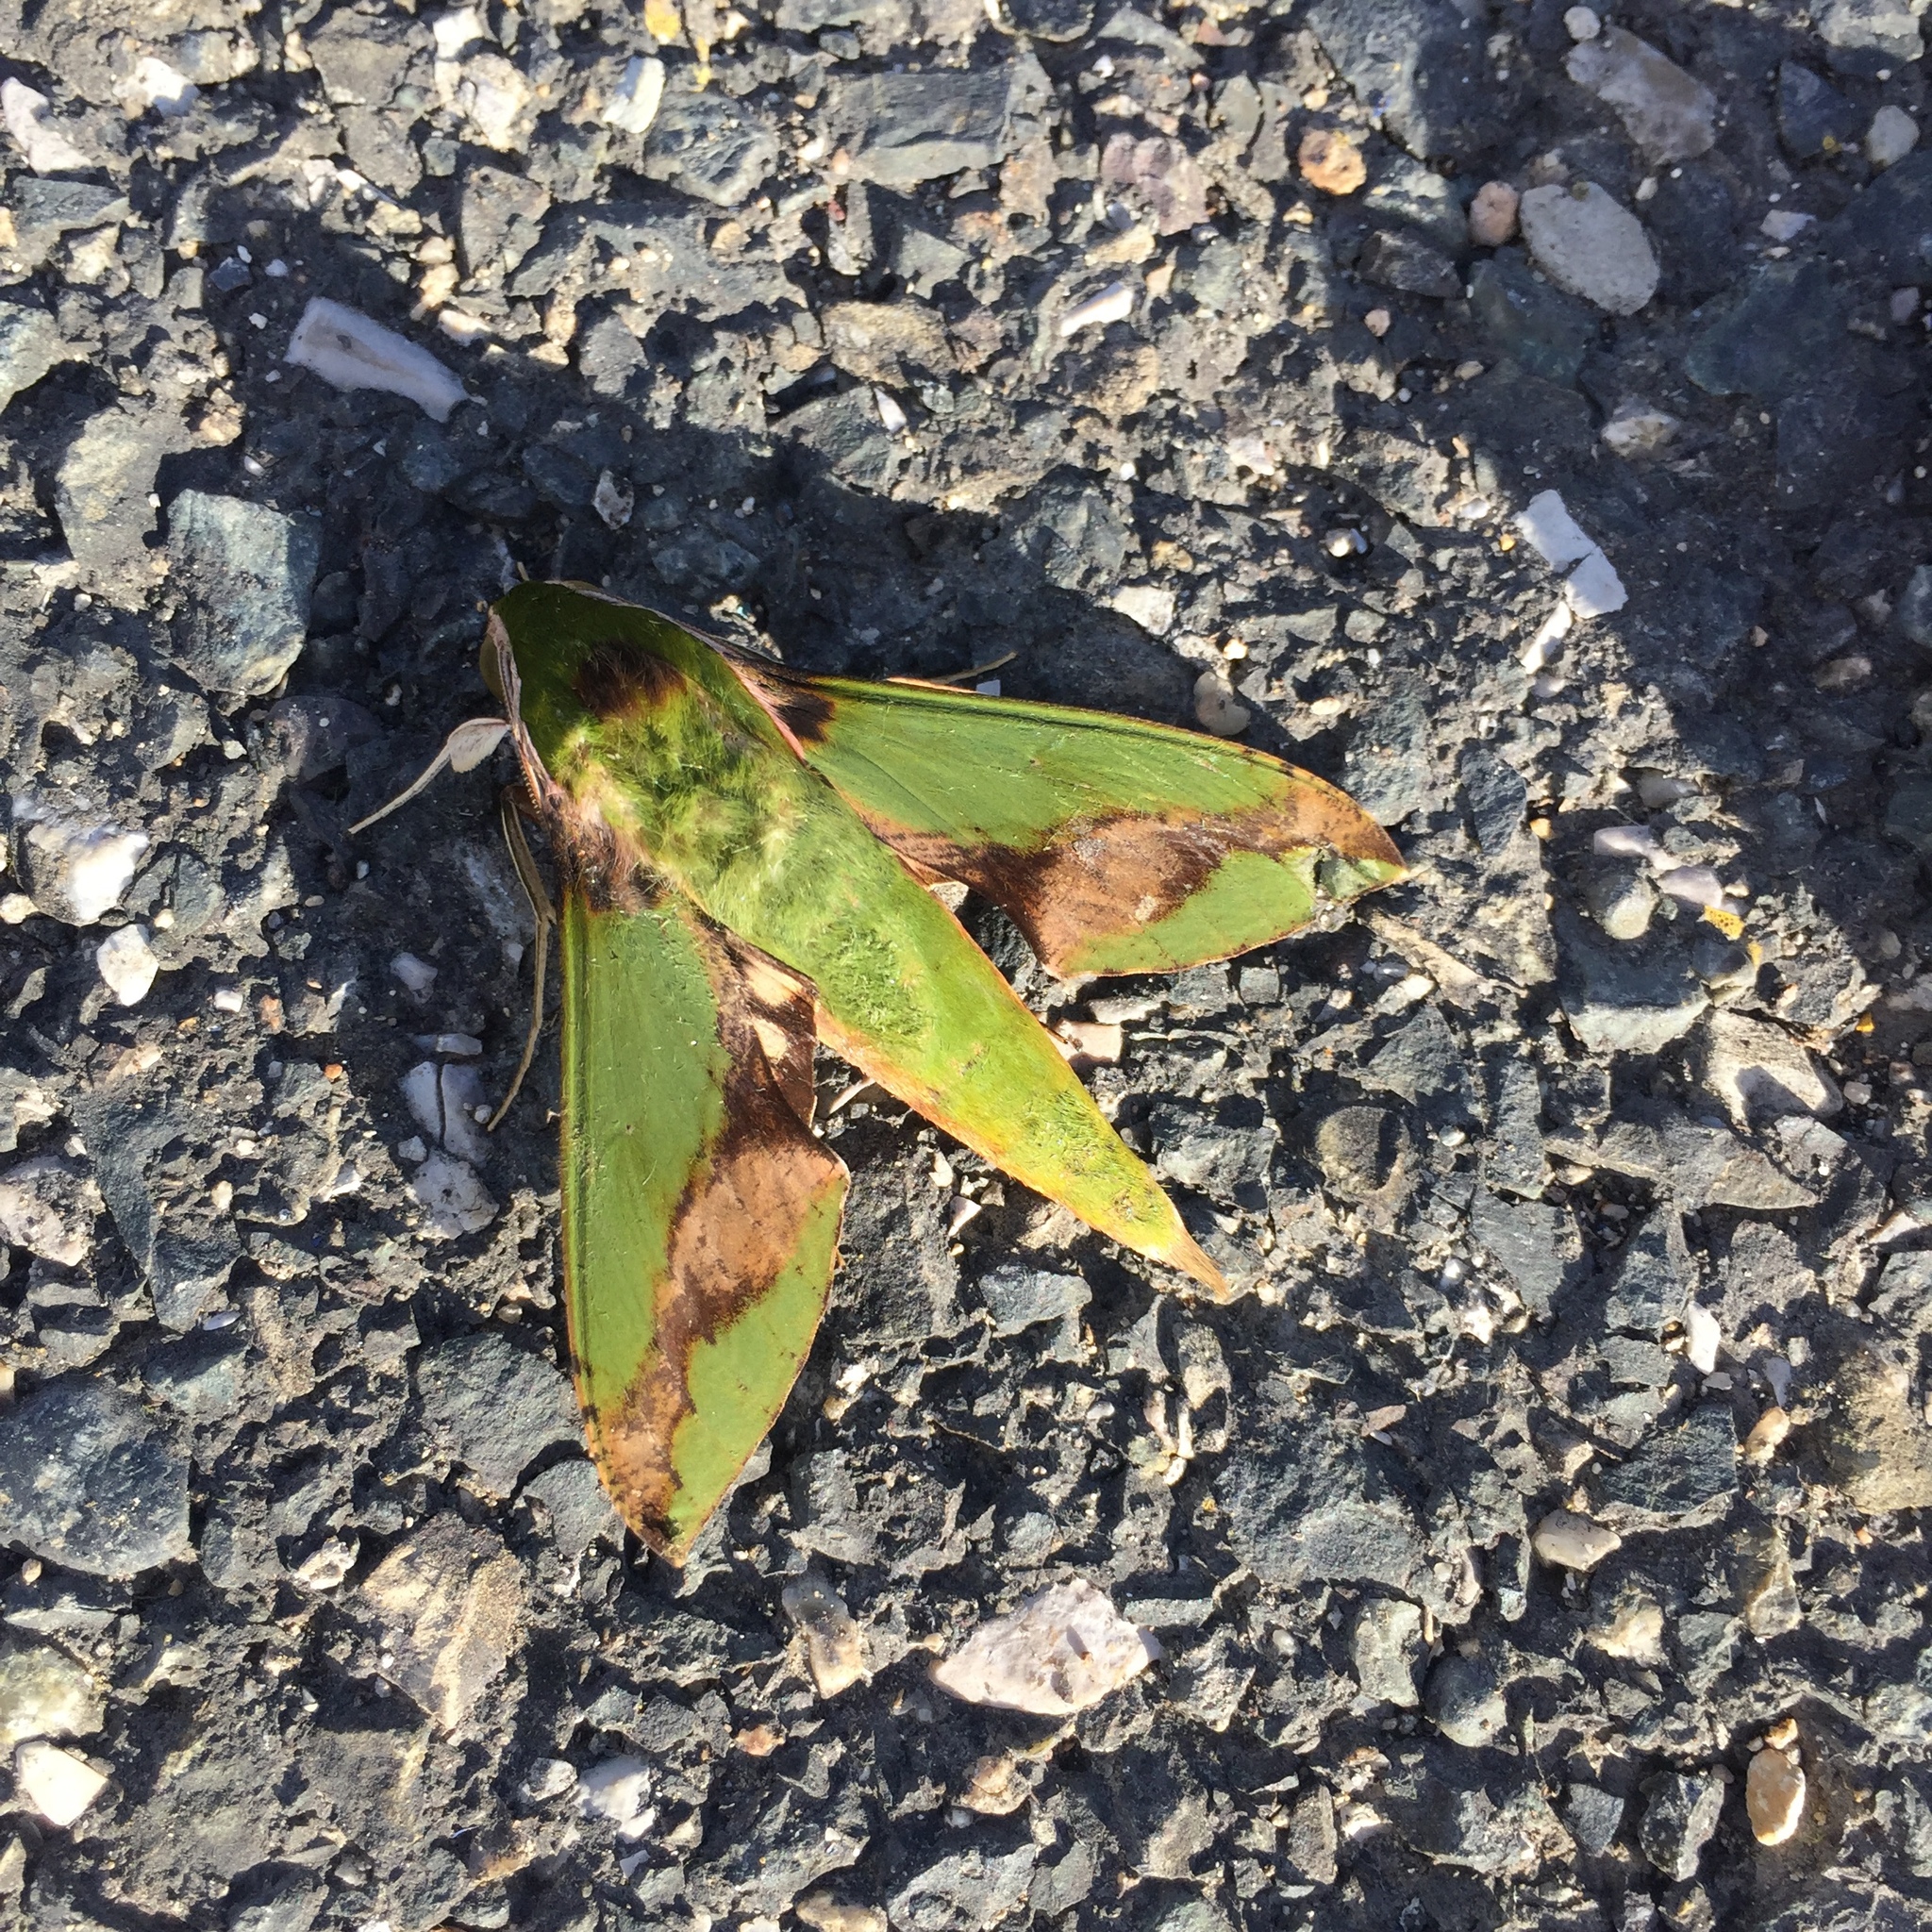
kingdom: Animalia
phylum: Arthropoda
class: Insecta
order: Lepidoptera
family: Sphingidae
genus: Xylophanes
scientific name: Xylophanes chiron
